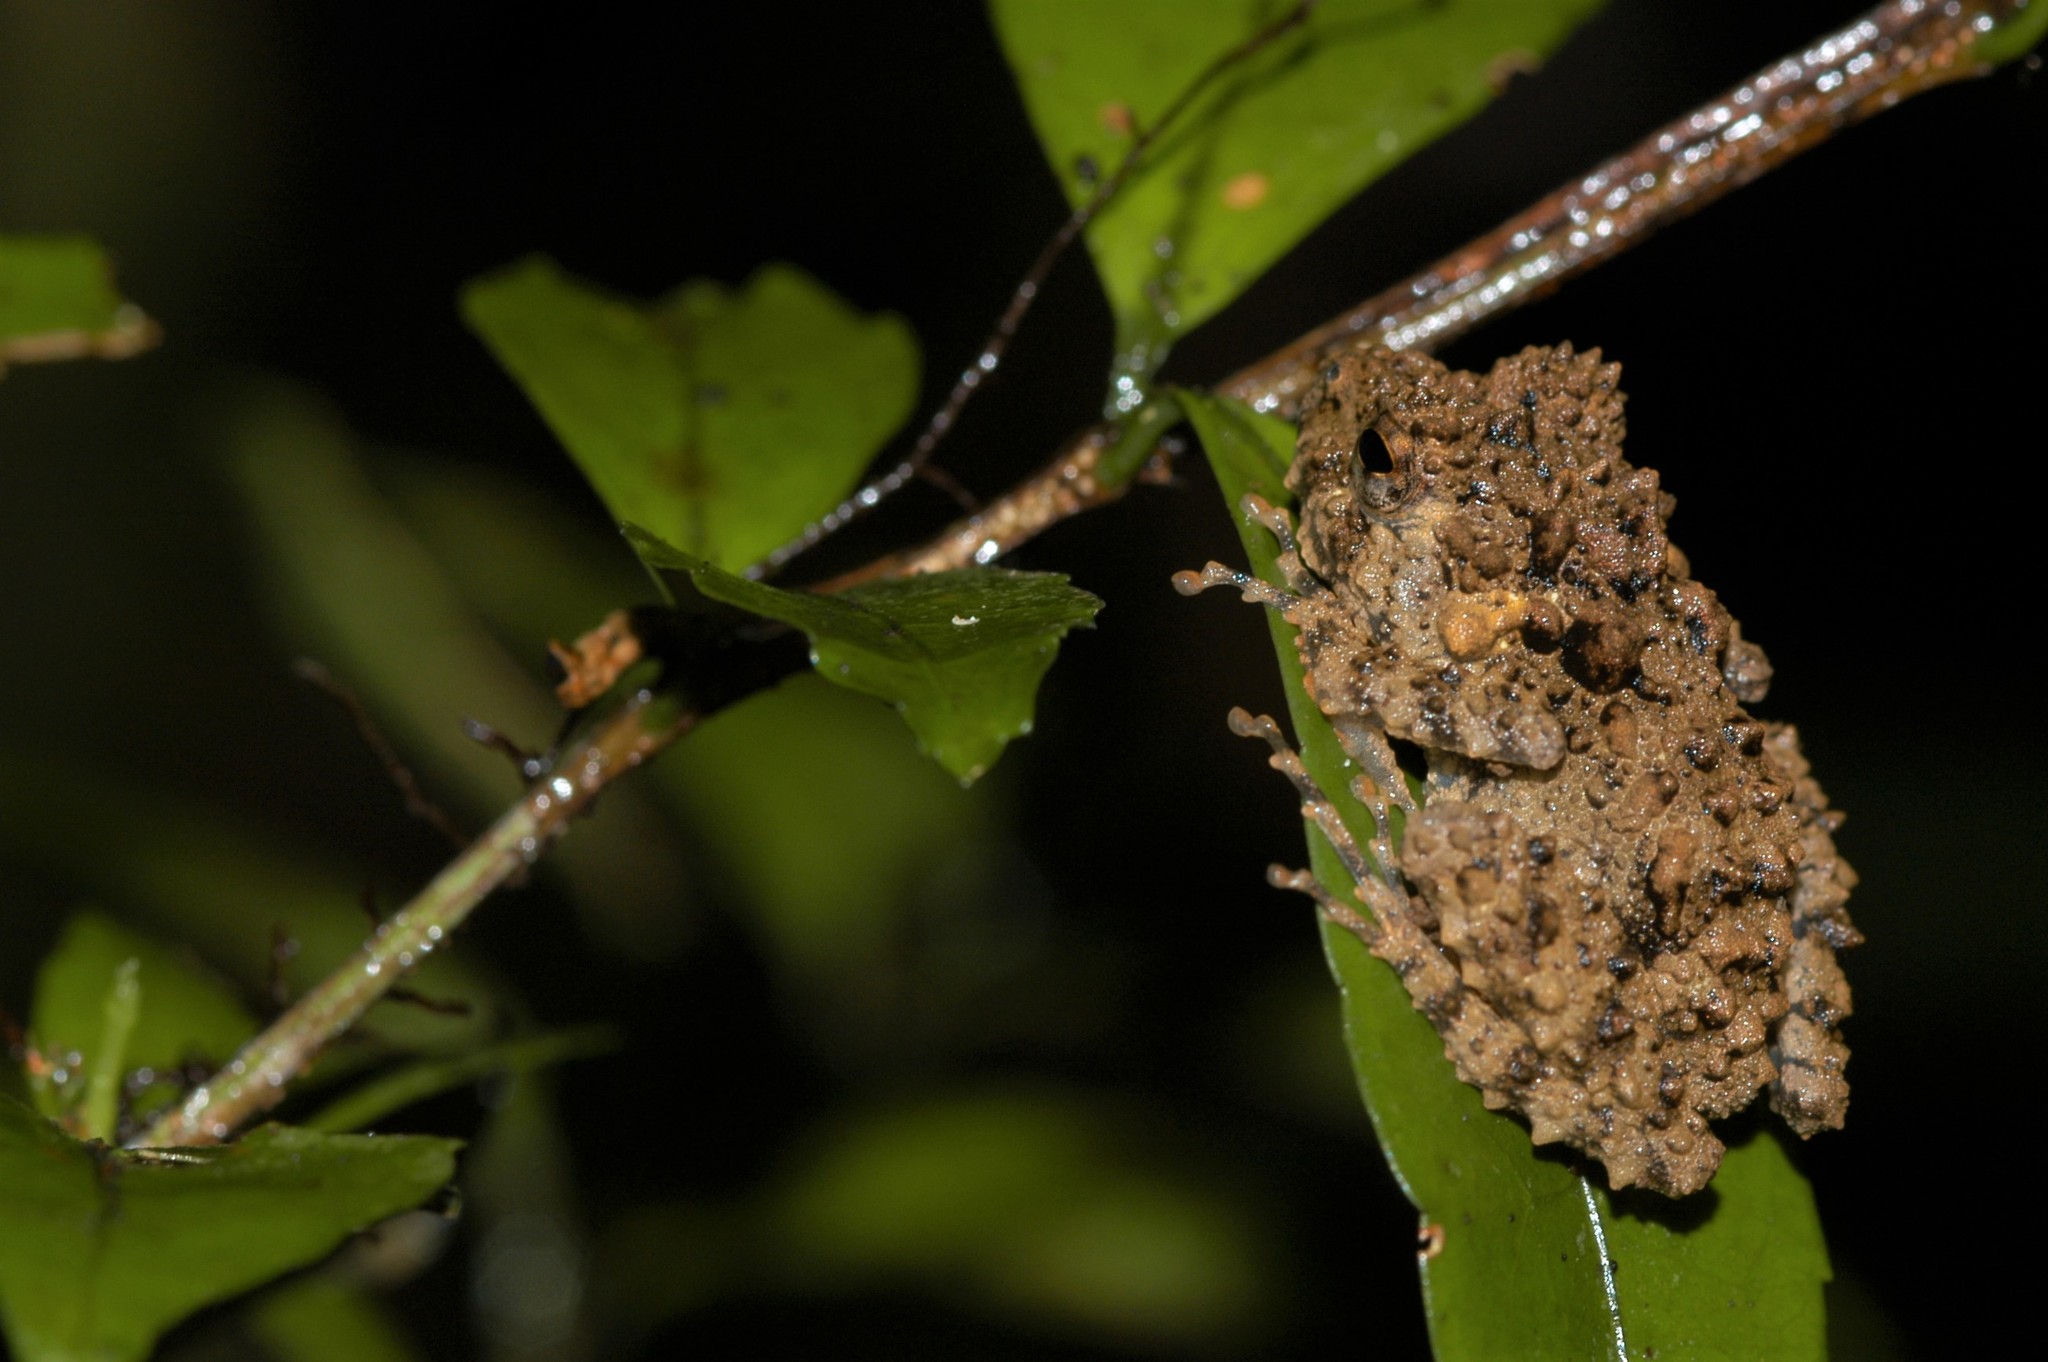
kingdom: Animalia
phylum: Chordata
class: Amphibia
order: Anura
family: Mantellidae
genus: Gephyromantis
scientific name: Gephyromantis oelkrugi
